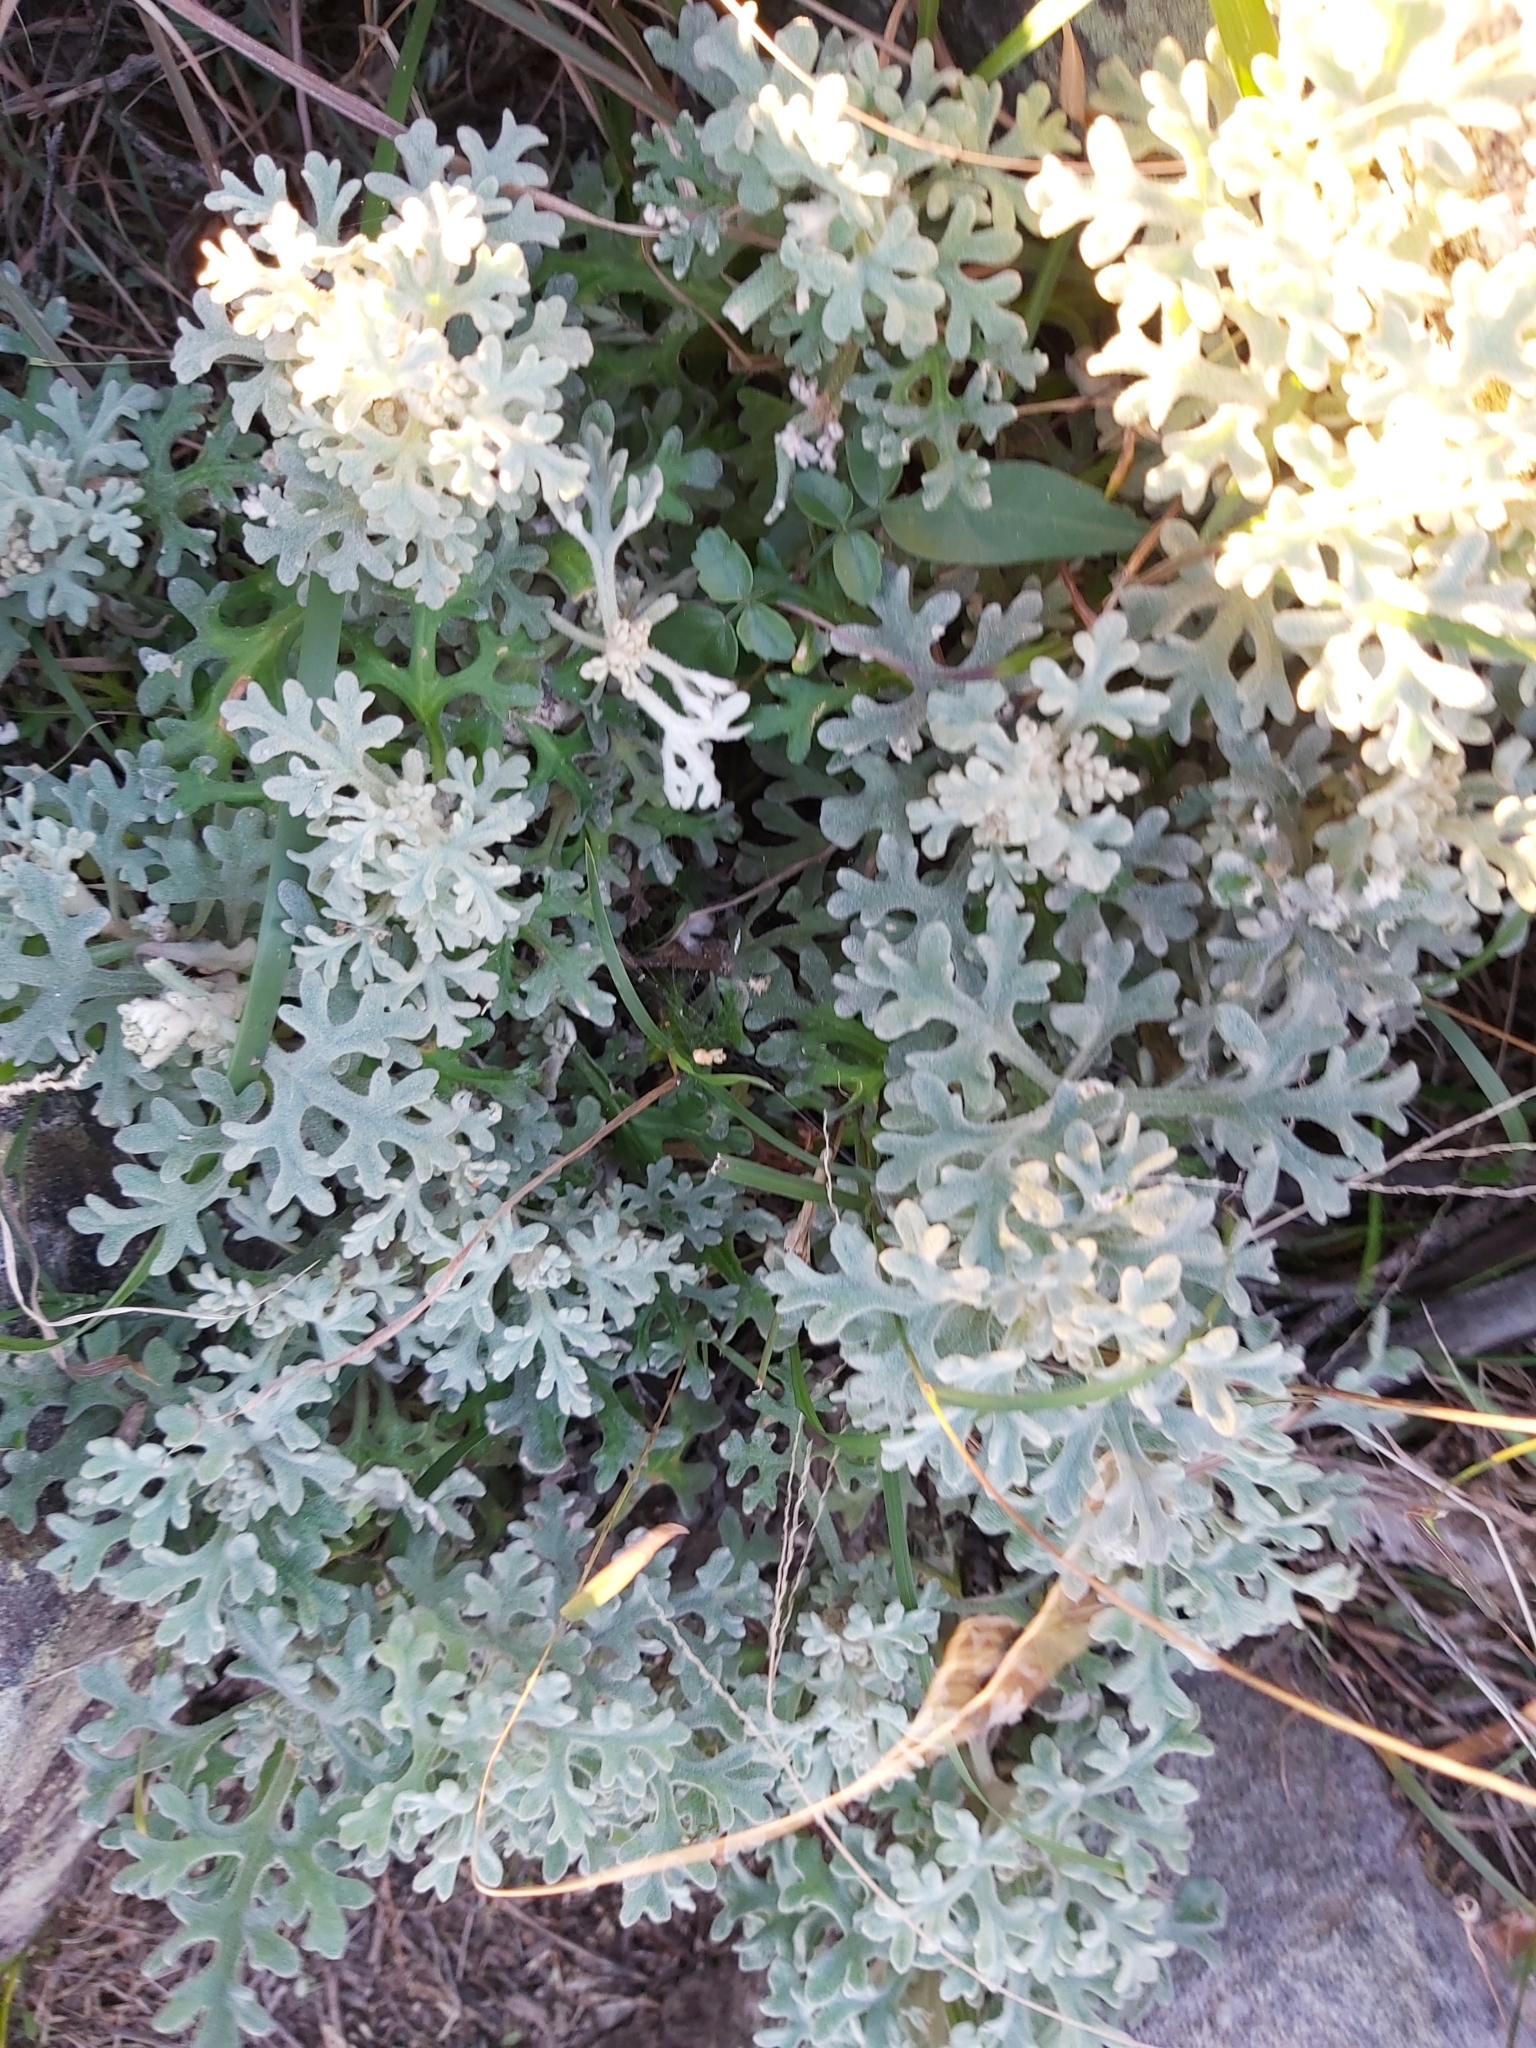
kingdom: Plantae
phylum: Tracheophyta
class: Magnoliopsida
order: Apiales
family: Apiaceae
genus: Actinotus
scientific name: Actinotus helianthi
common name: Flannel-flower
